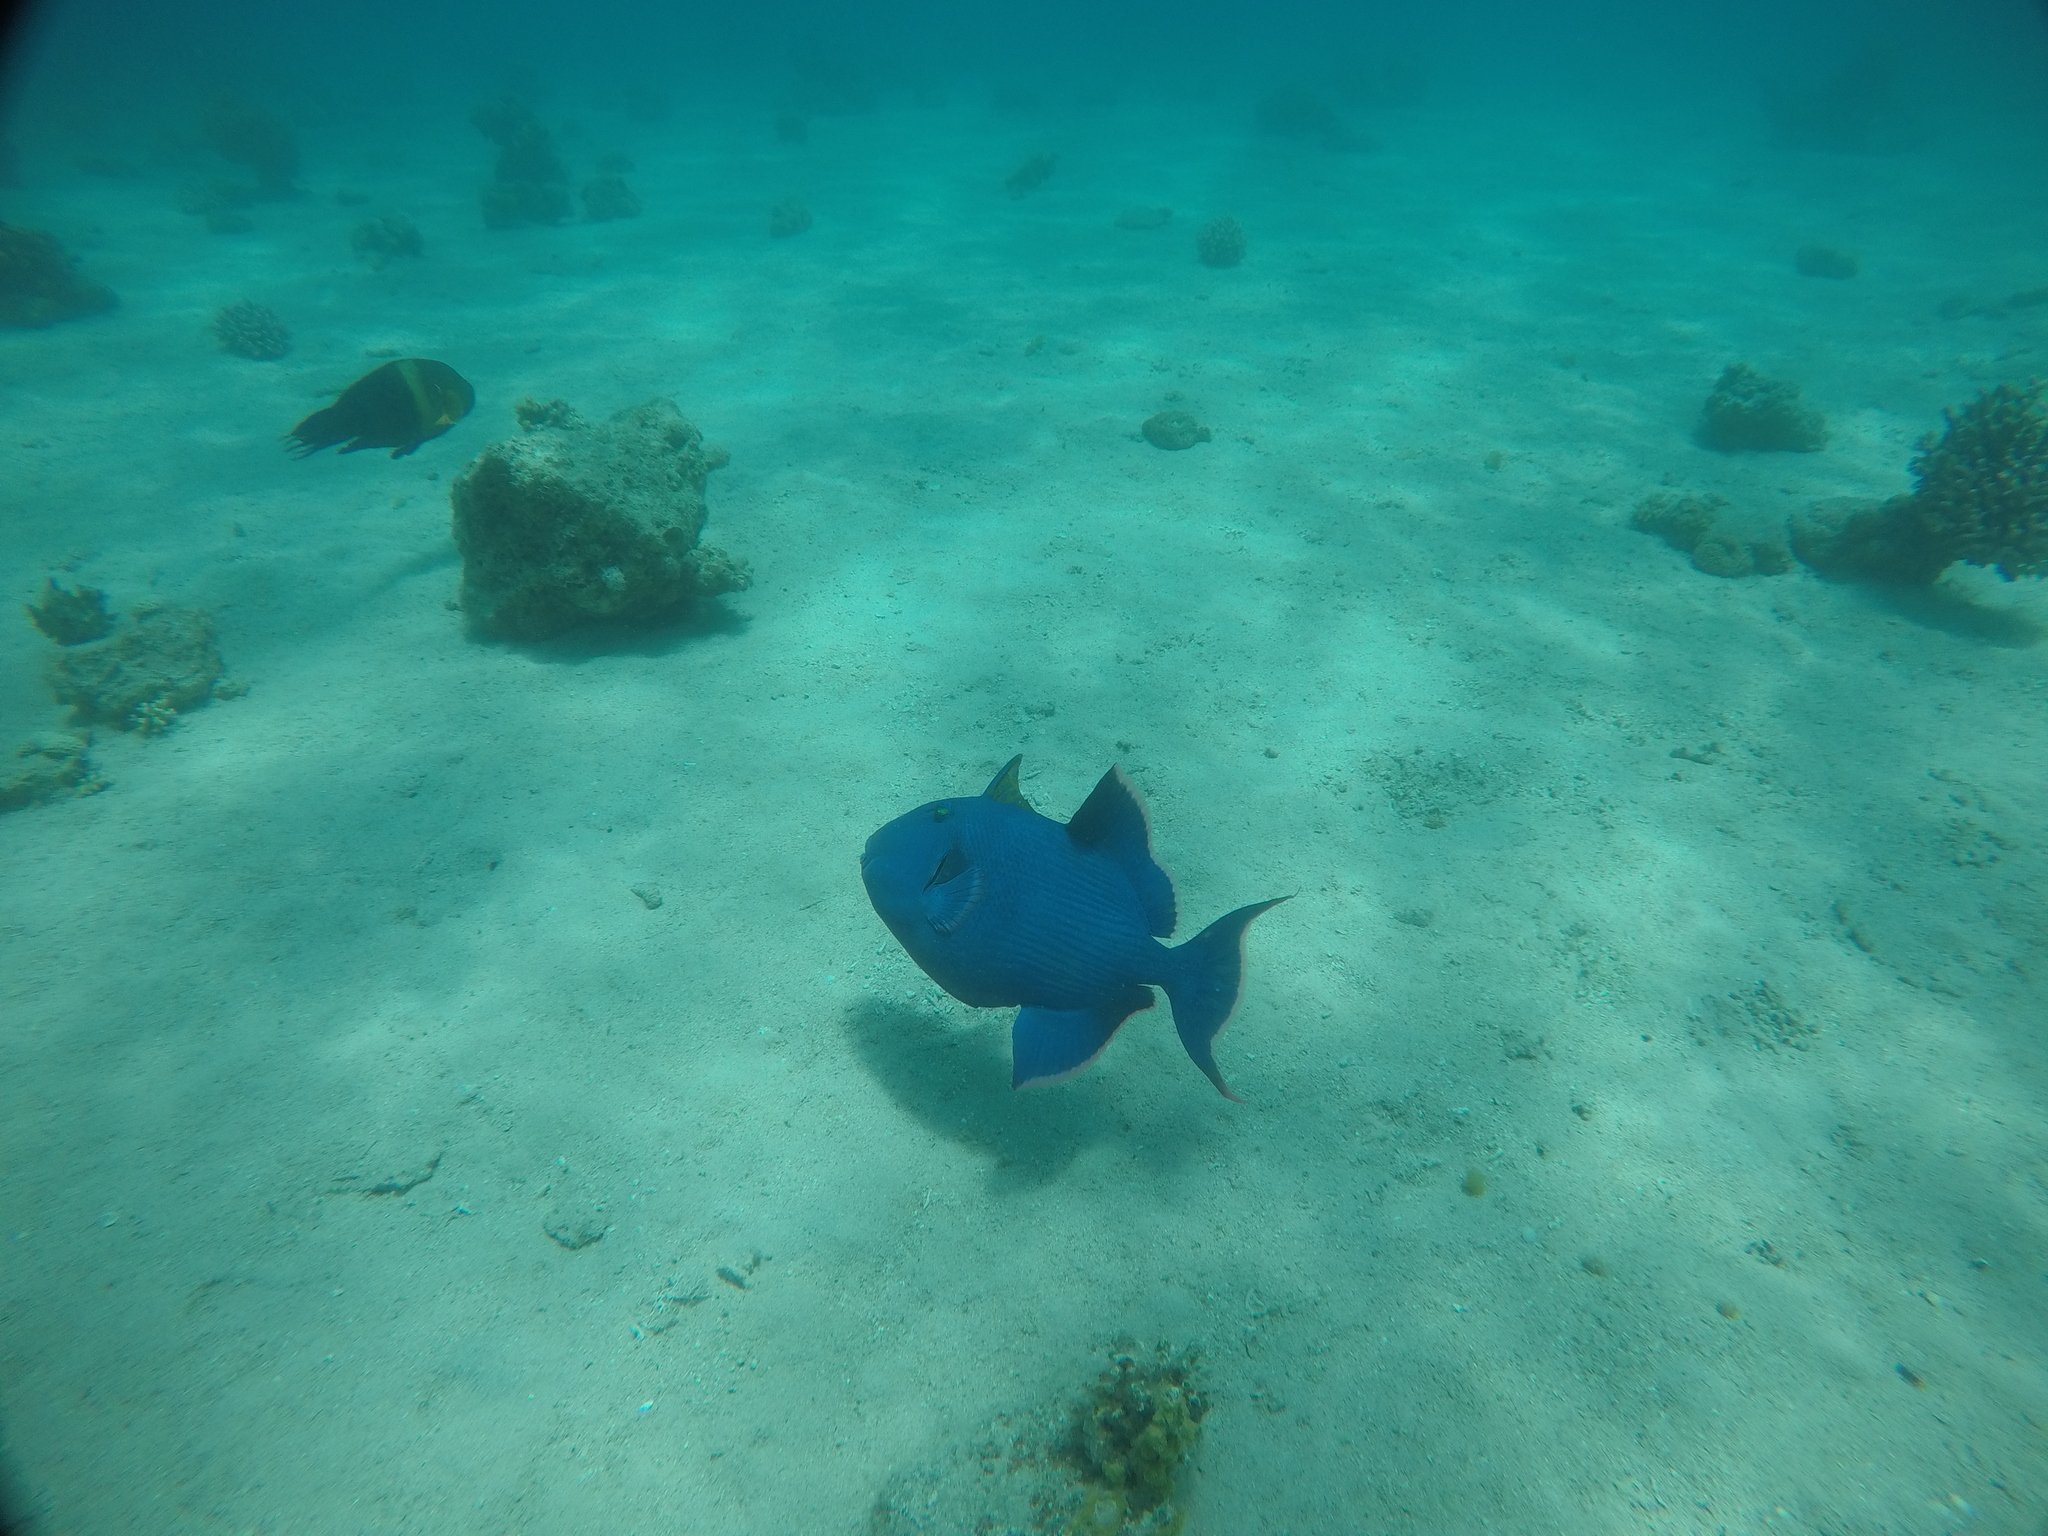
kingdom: Animalia
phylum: Chordata
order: Tetraodontiformes
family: Balistidae
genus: Pseudobalistes
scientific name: Pseudobalistes fuscus
